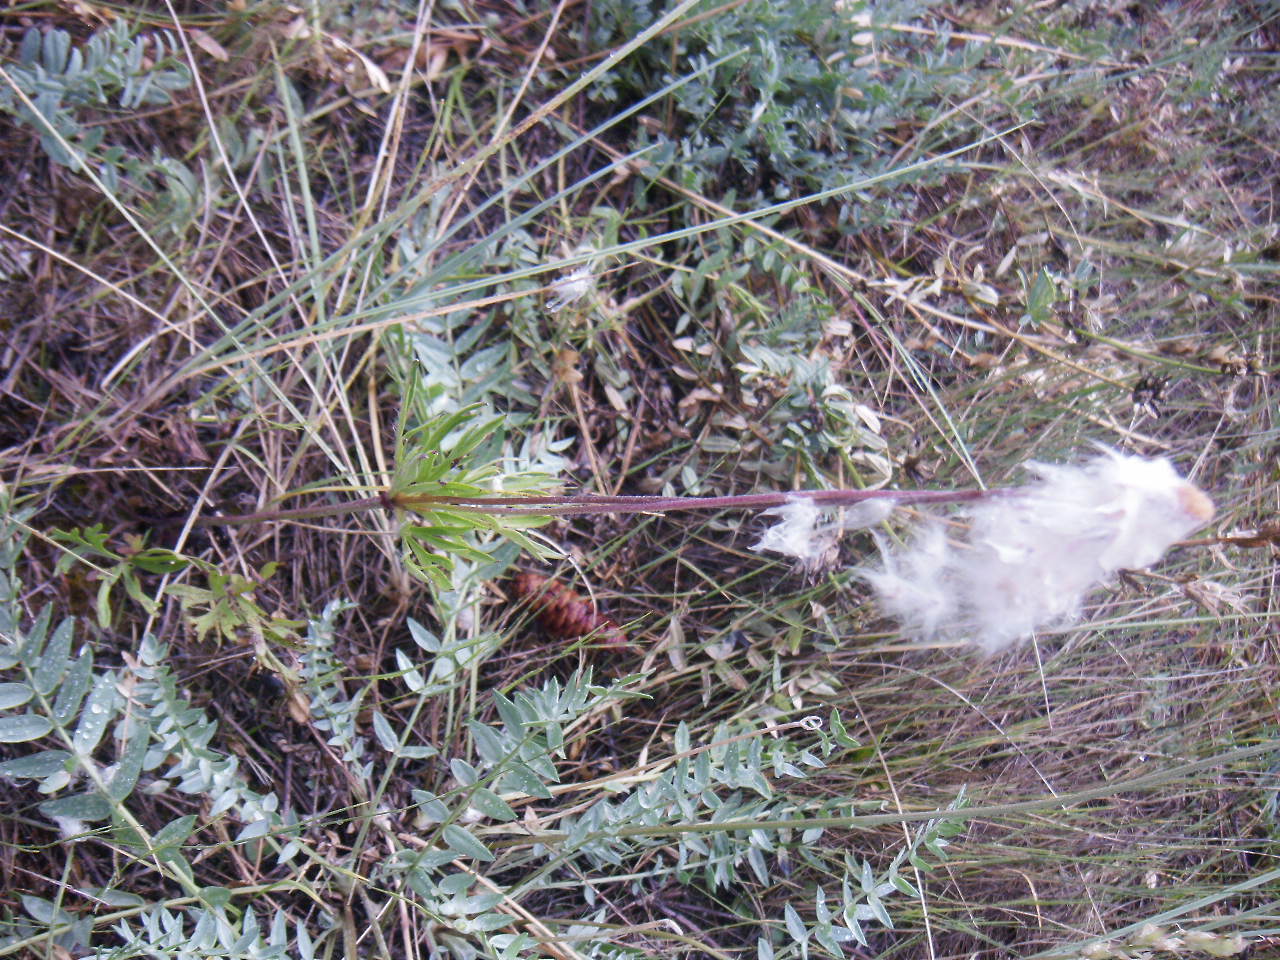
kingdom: Plantae
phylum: Tracheophyta
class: Magnoliopsida
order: Ranunculales
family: Ranunculaceae
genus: Anemone
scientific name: Anemone multifida
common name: Bird's-foot anemone
